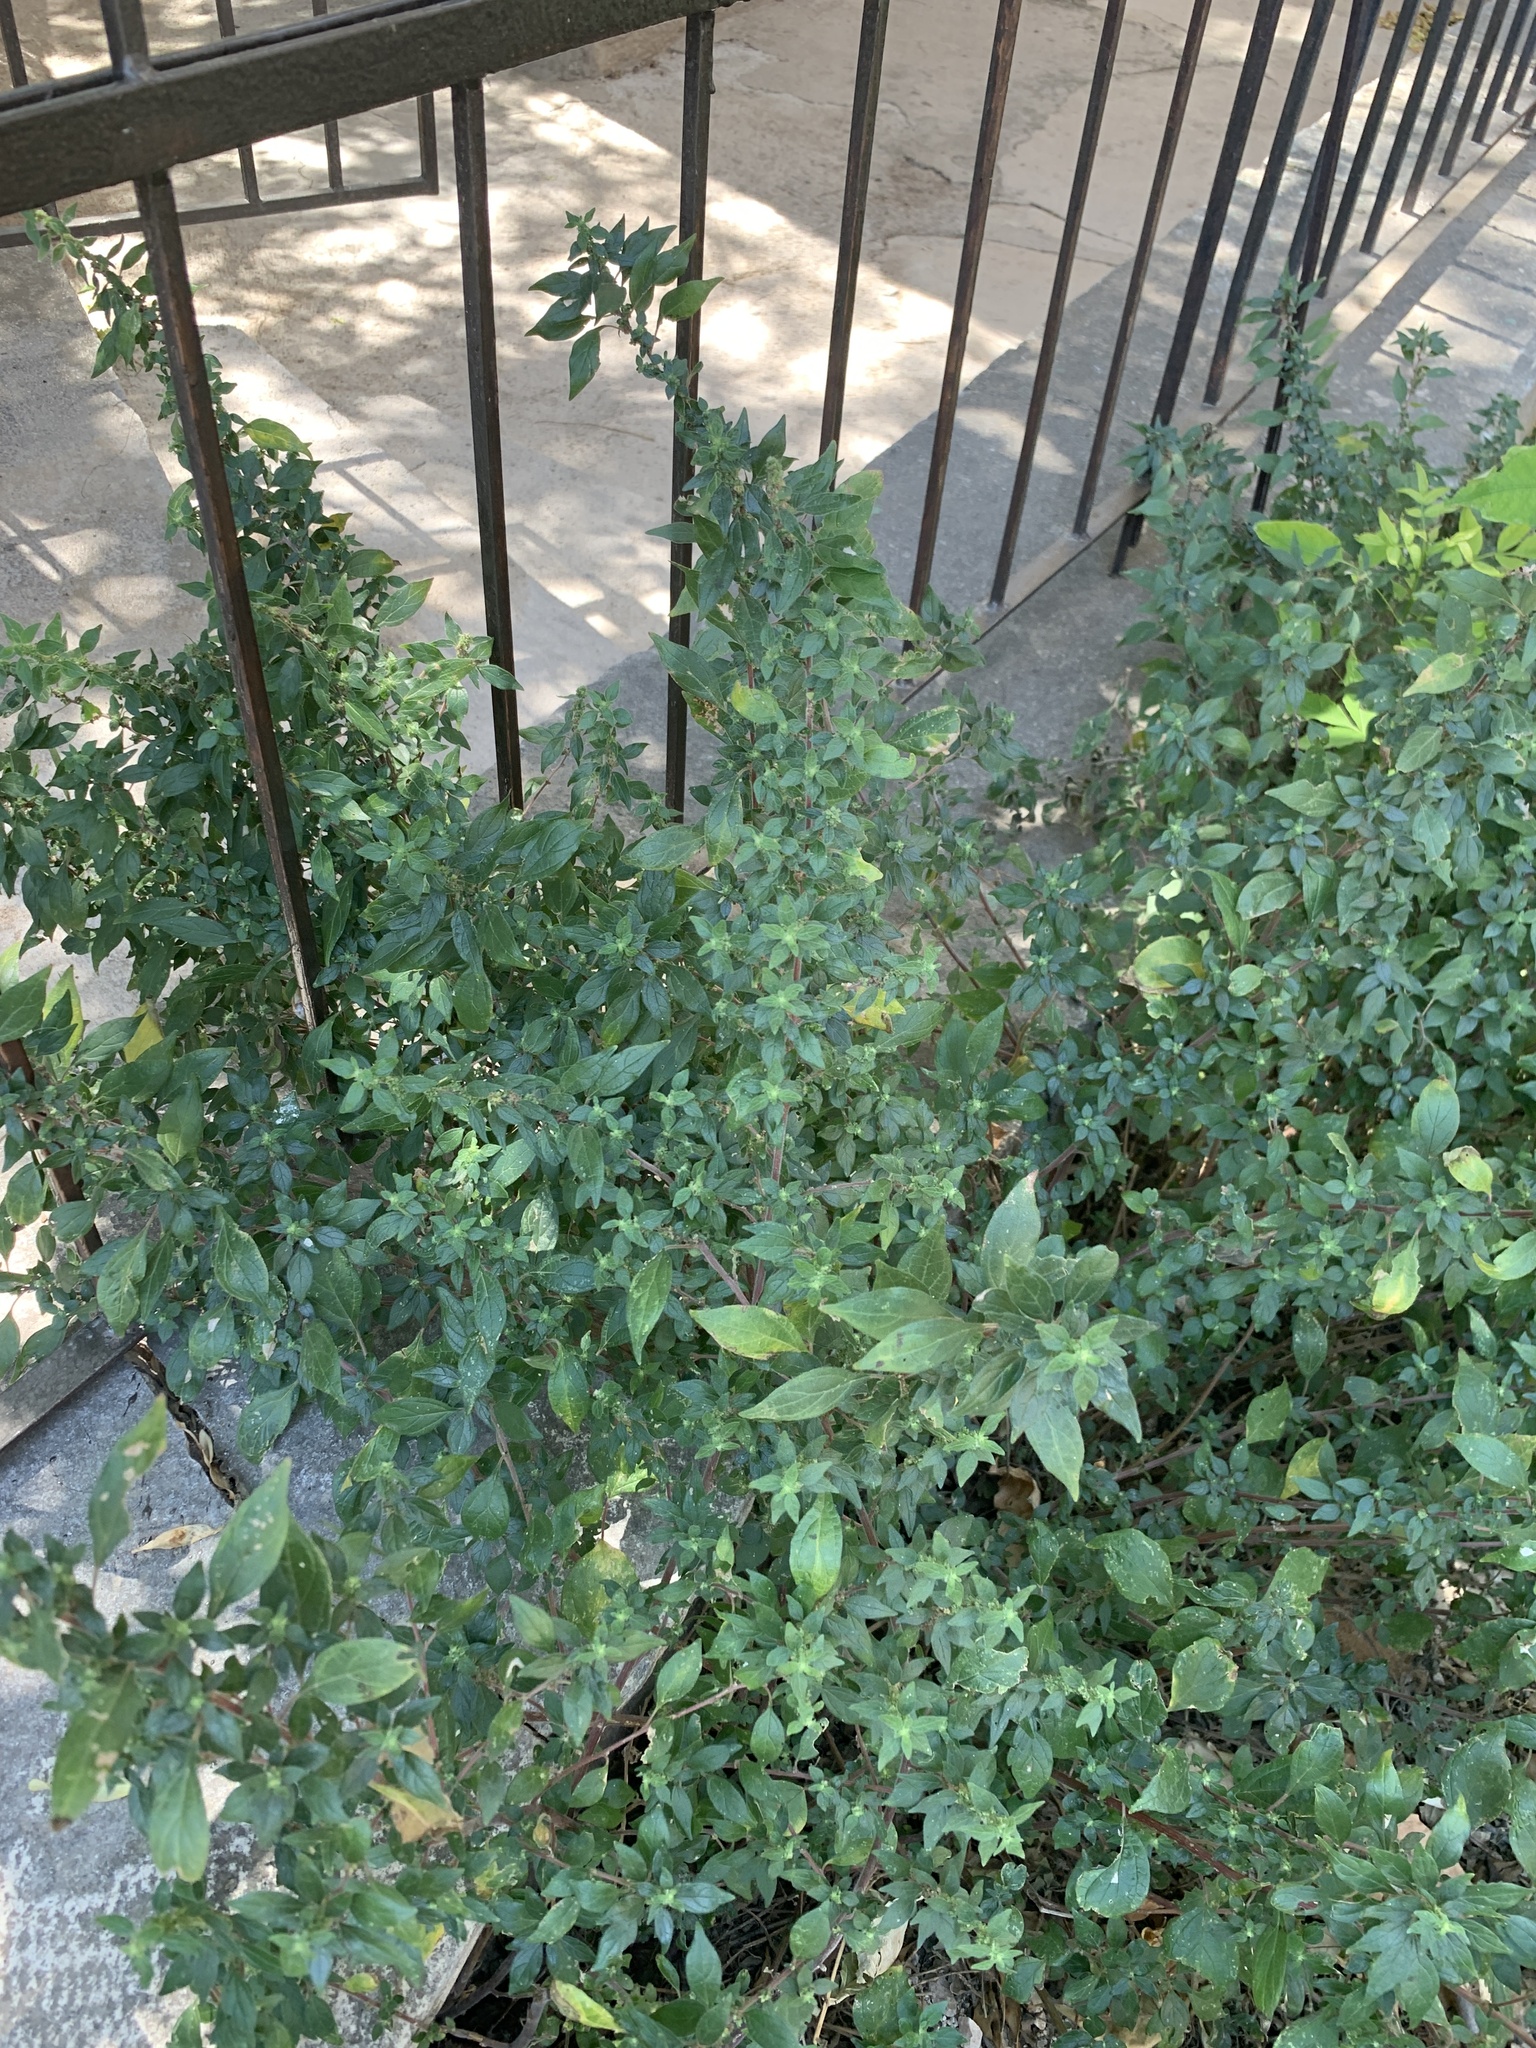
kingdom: Plantae
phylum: Tracheophyta
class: Magnoliopsida
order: Rosales
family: Urticaceae
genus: Parietaria
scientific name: Parietaria judaica
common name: Pellitory-of-the-wall
